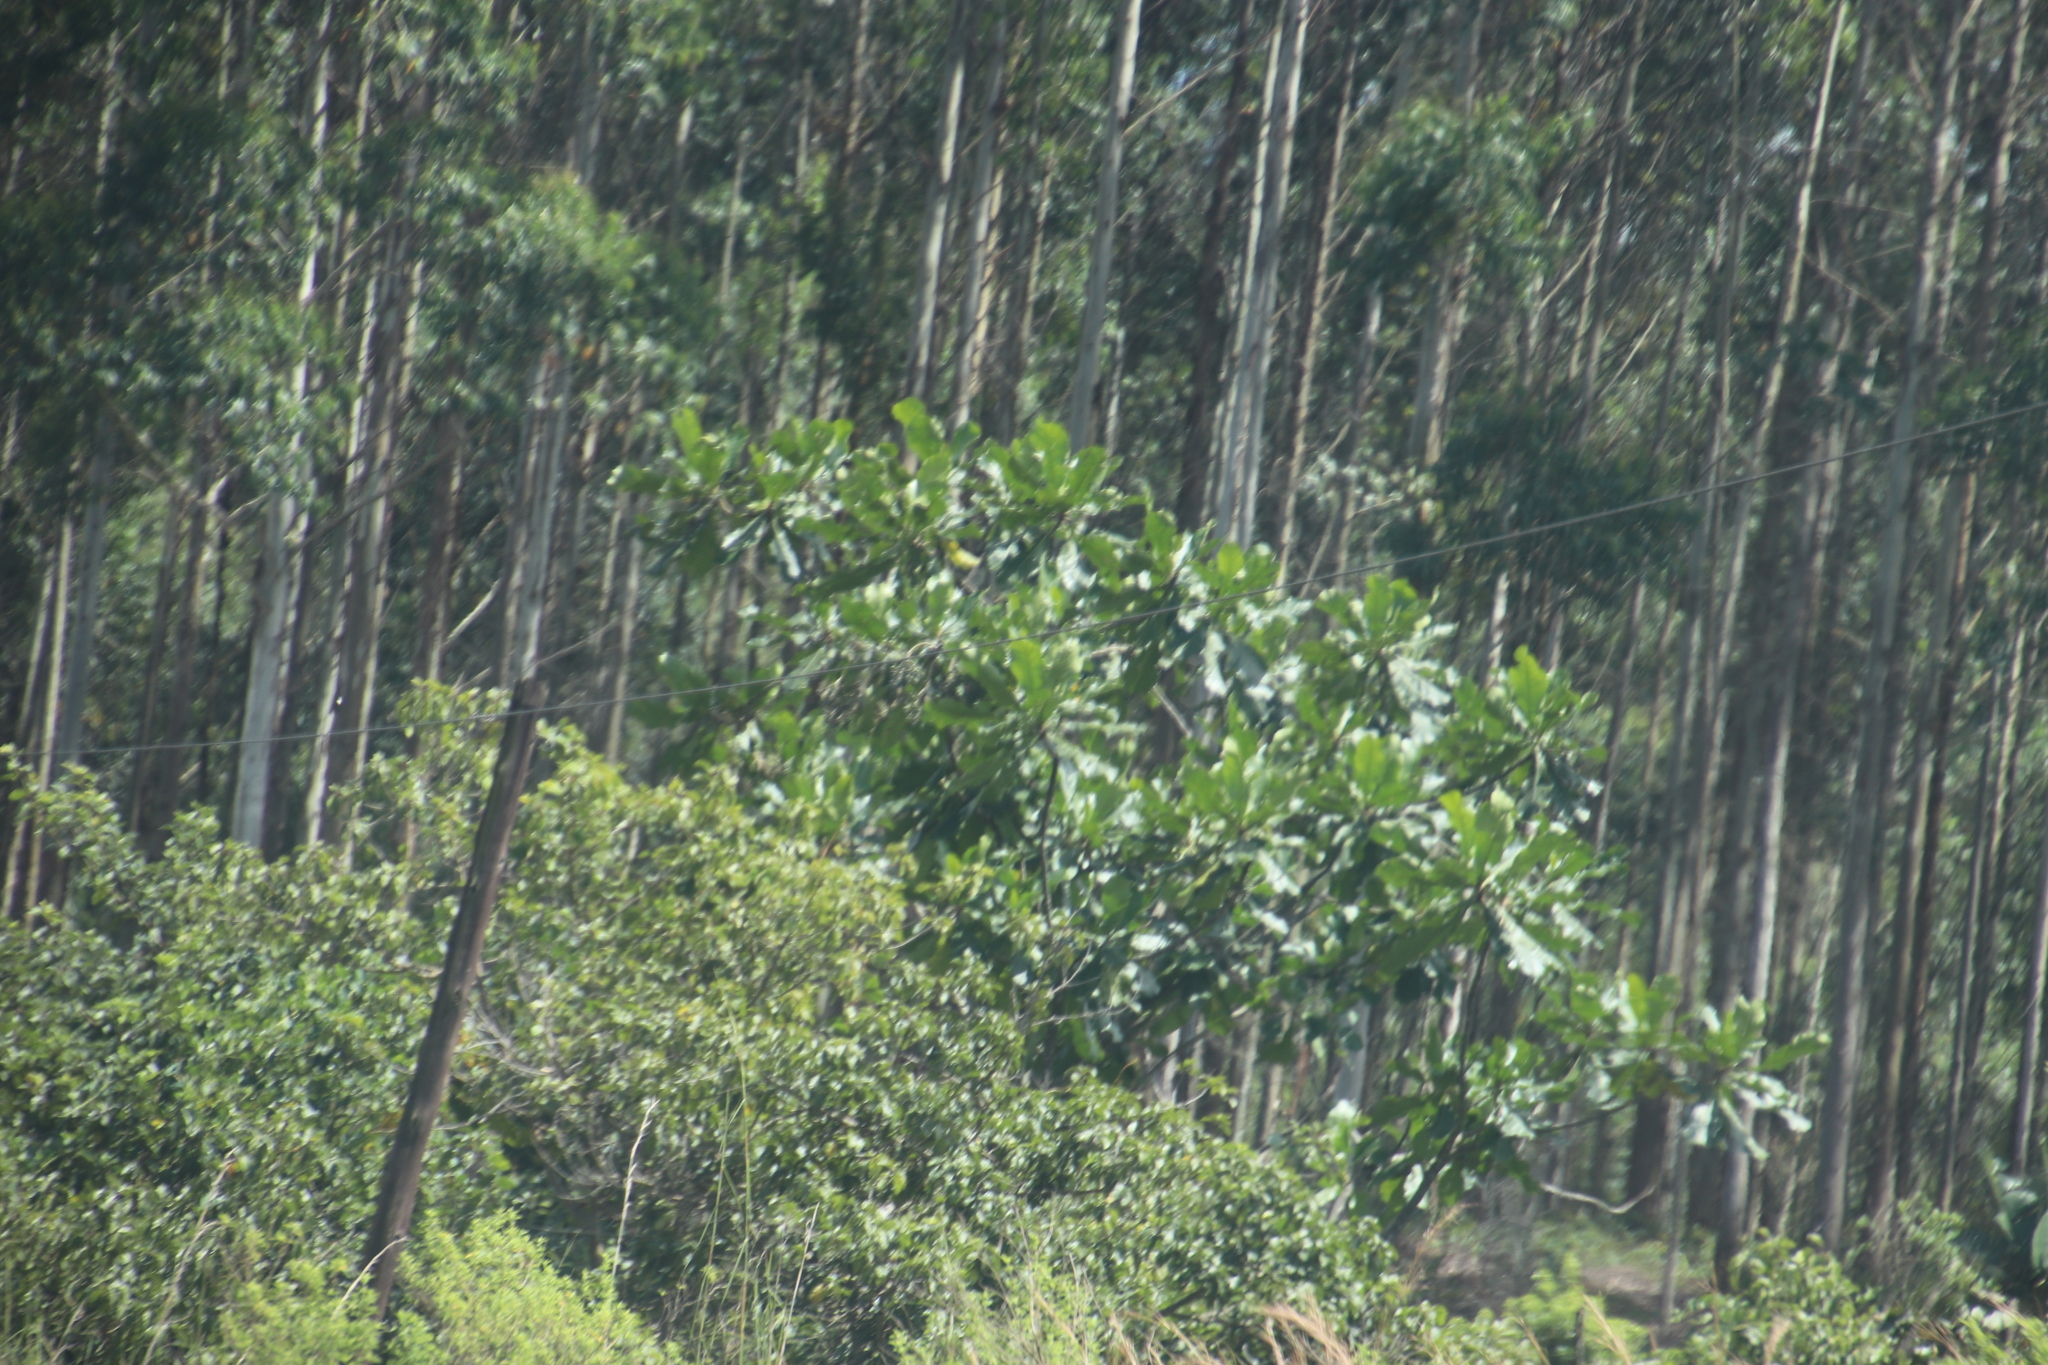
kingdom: Plantae
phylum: Tracheophyta
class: Magnoliopsida
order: Gentianales
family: Gentianaceae
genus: Anthocleista
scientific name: Anthocleista grandiflora
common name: Forest big-leaf
